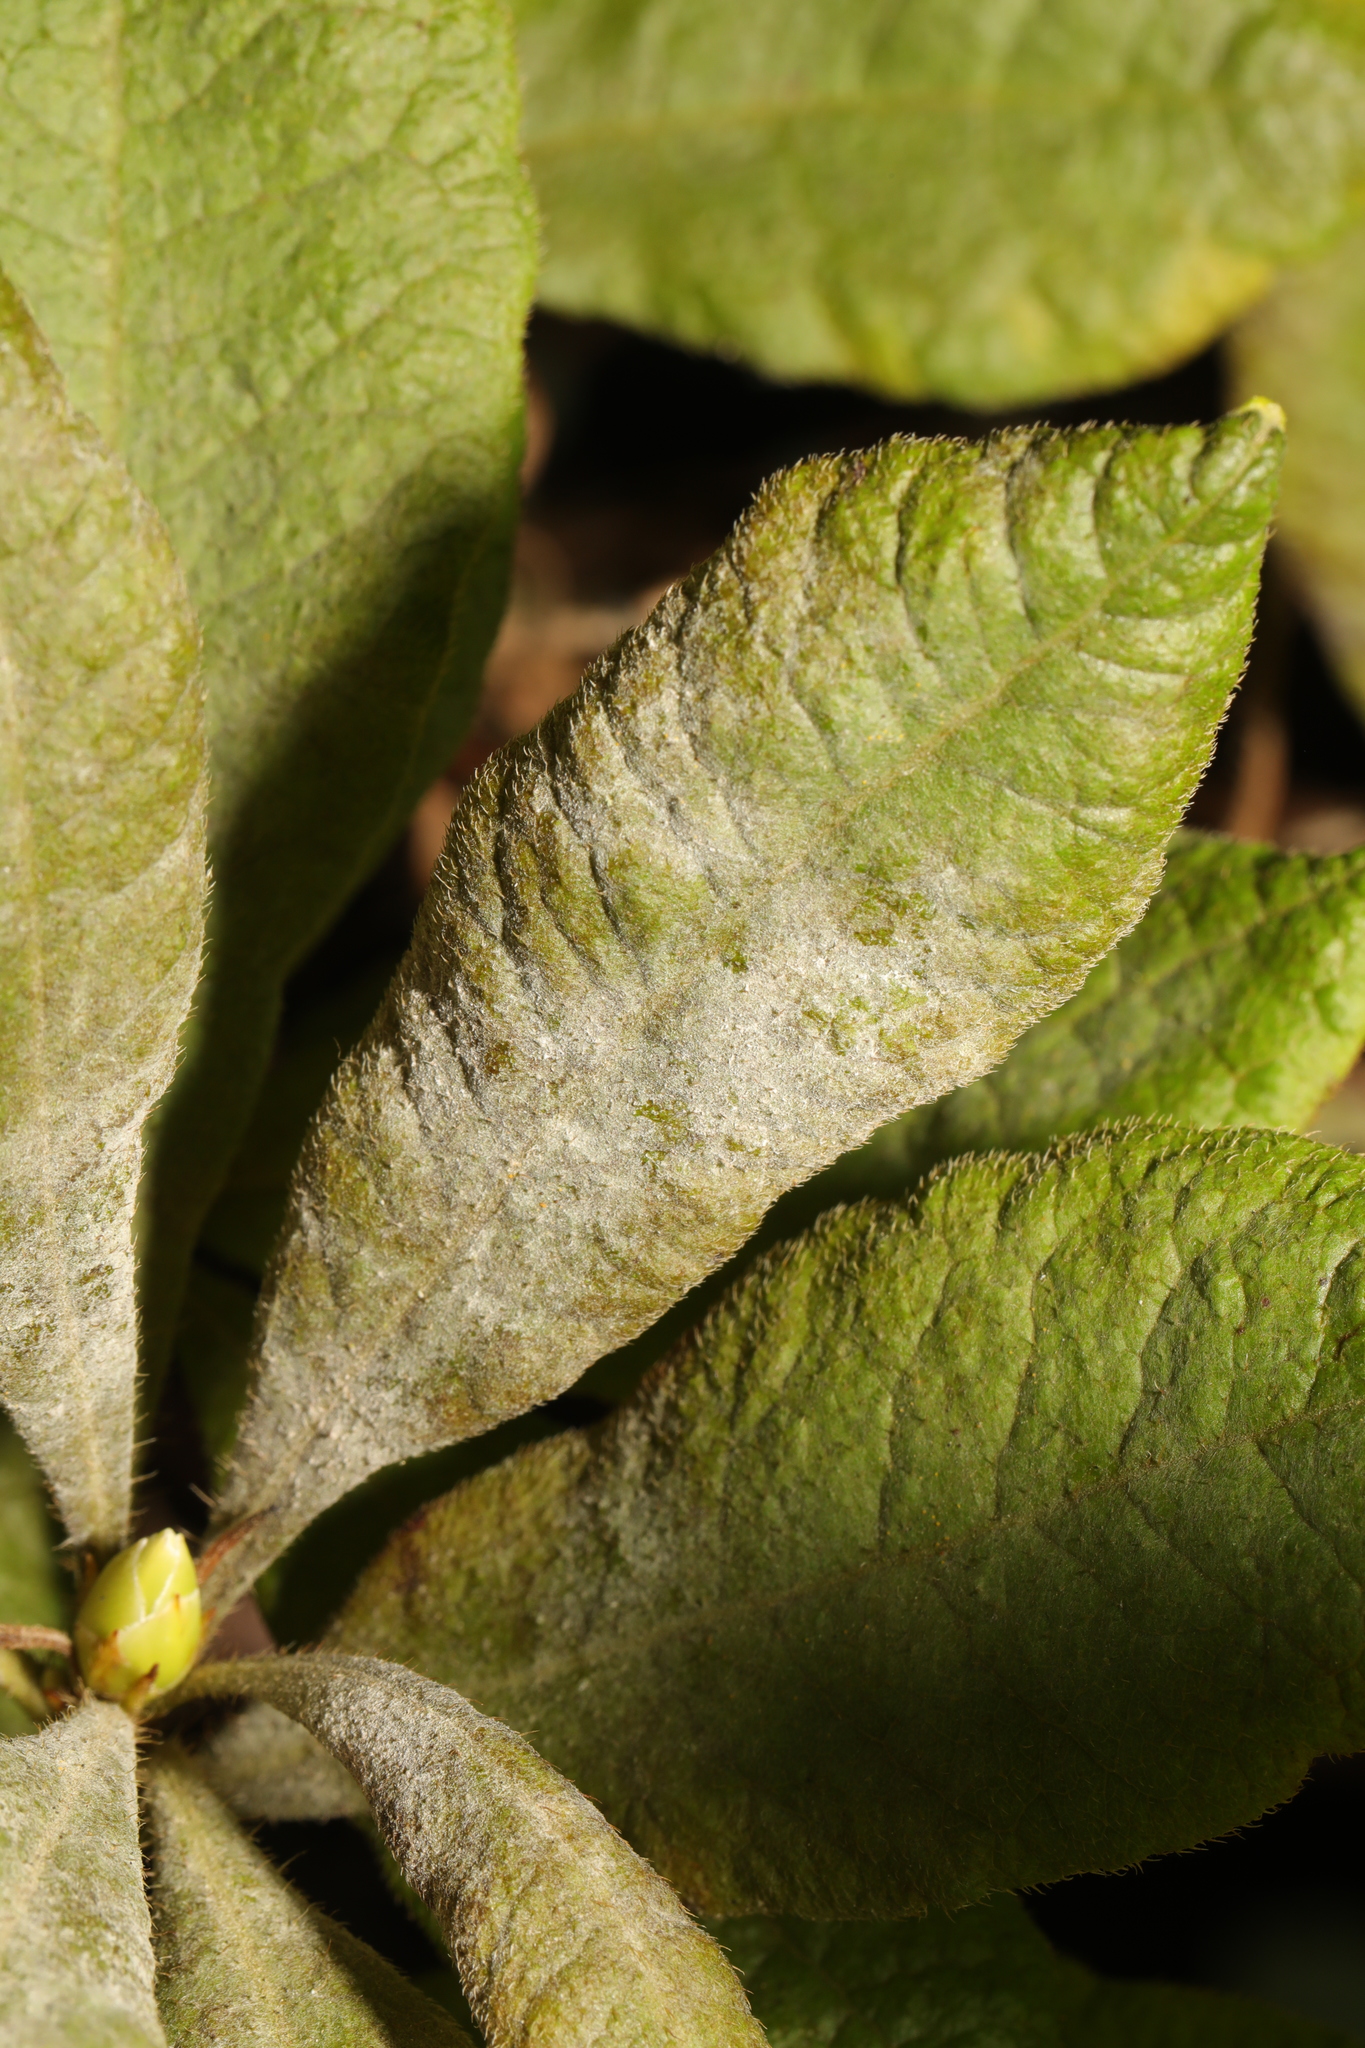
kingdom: Fungi
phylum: Ascomycota
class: Leotiomycetes
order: Helotiales
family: Erysiphaceae
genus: Erysiphe
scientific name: Erysiphe azaleae
